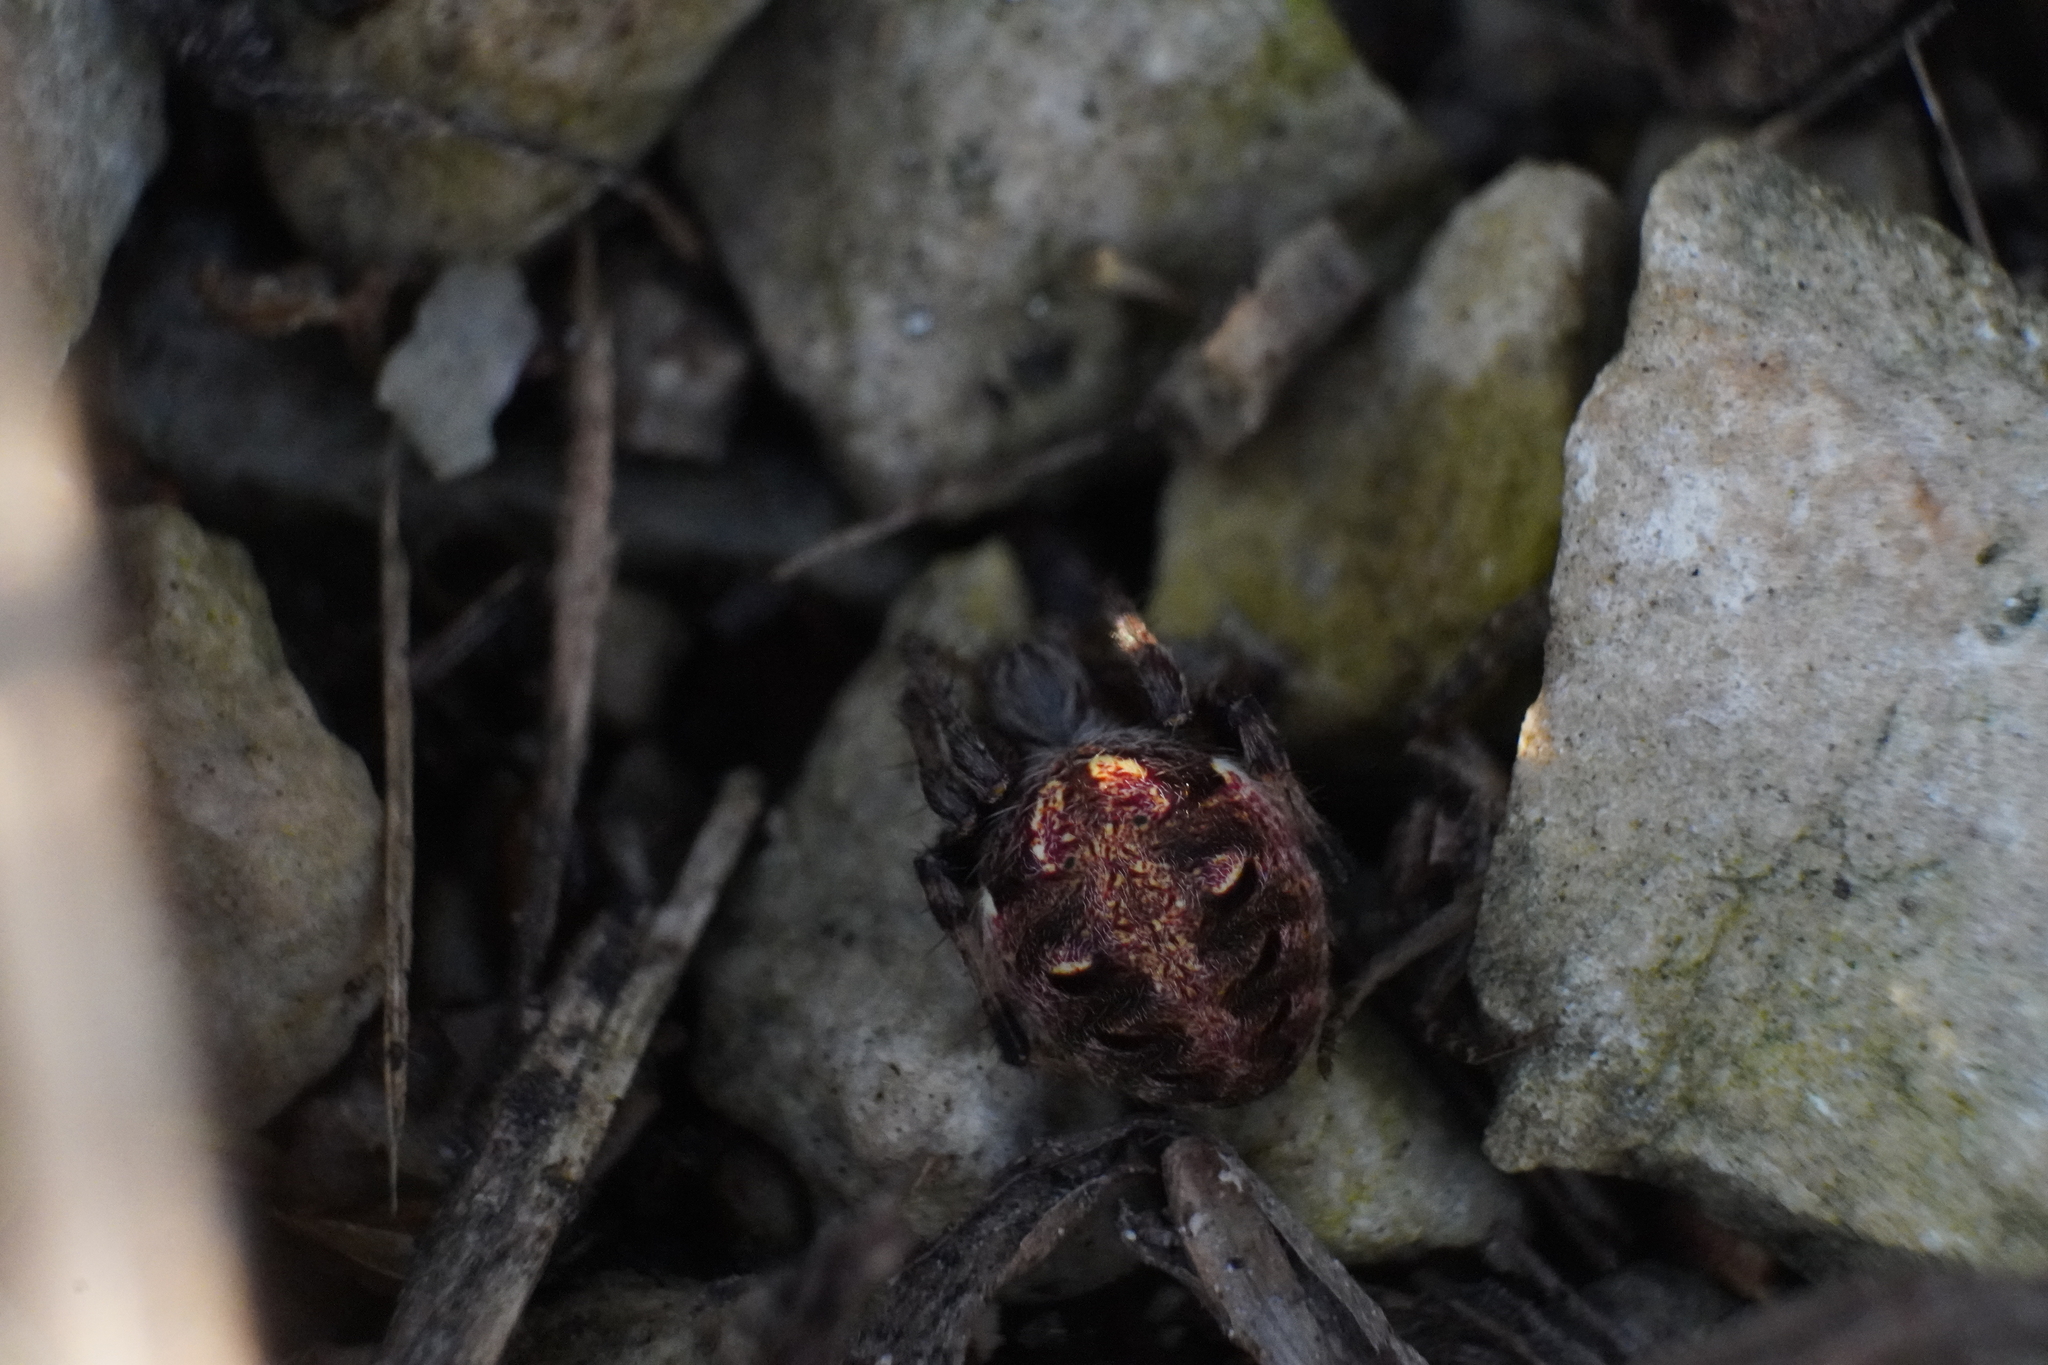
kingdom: Animalia
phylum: Arthropoda
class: Arachnida
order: Araneae
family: Araneidae
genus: Neoscona
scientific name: Neoscona arabesca
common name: Orb weavers
